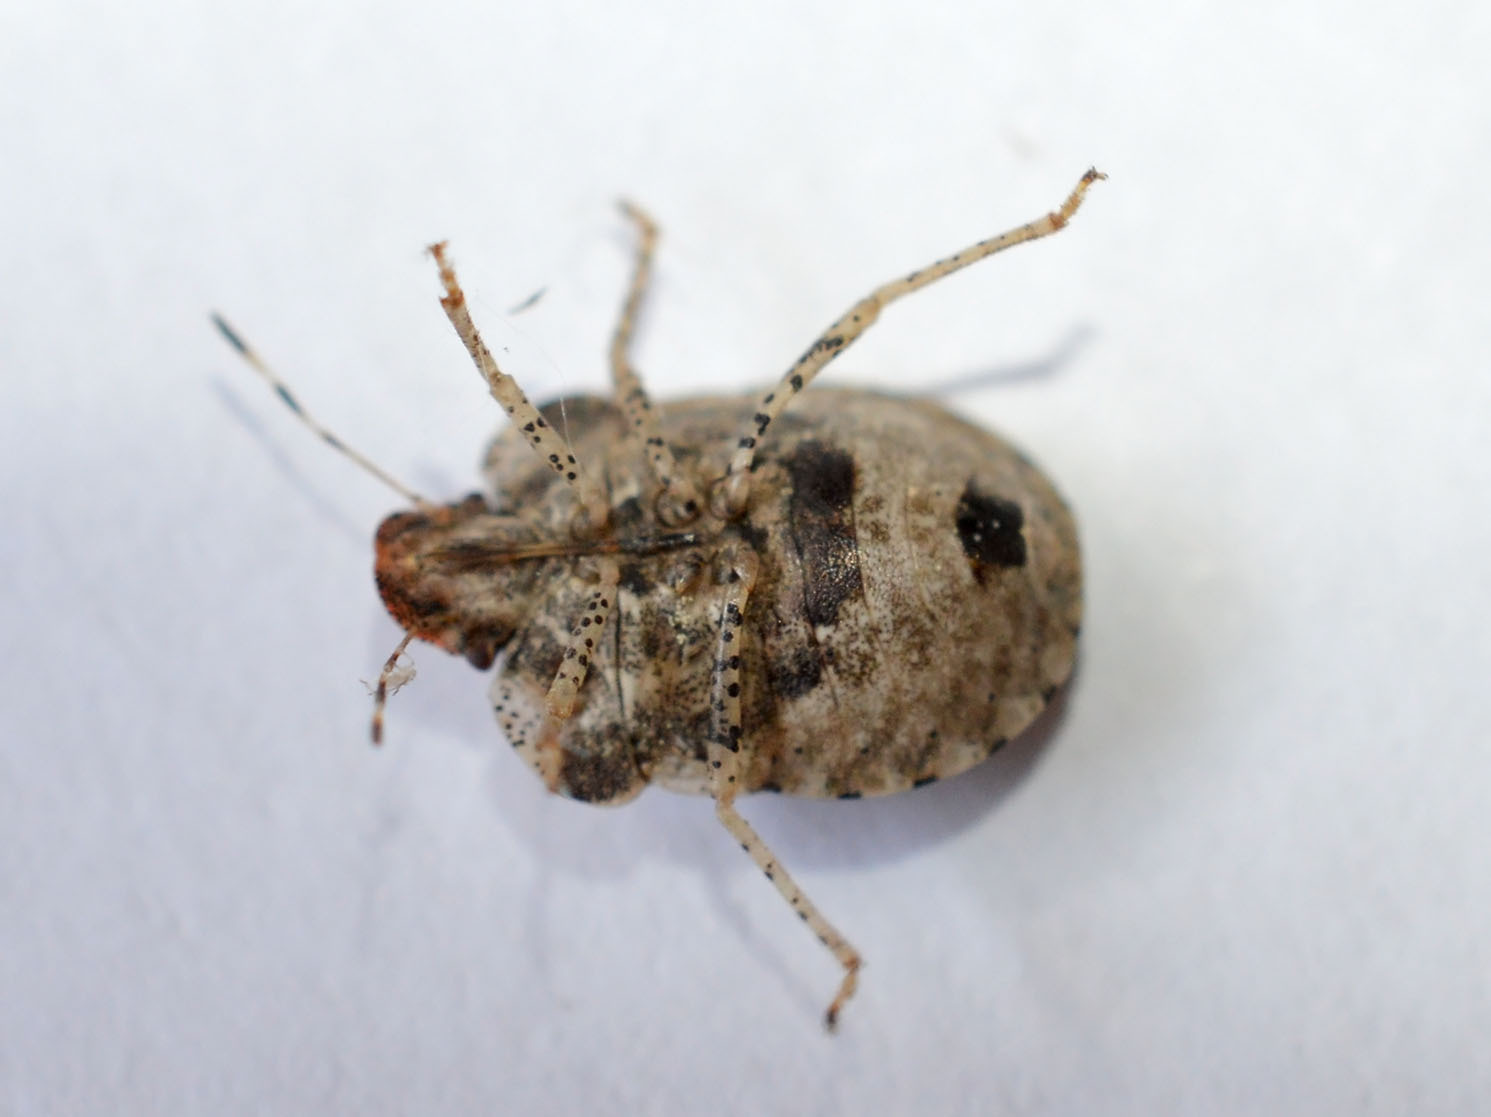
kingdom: Animalia
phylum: Arthropoda
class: Insecta
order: Hemiptera
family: Pentatomidae
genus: Dyroderes
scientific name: Dyroderes umbraculatus
